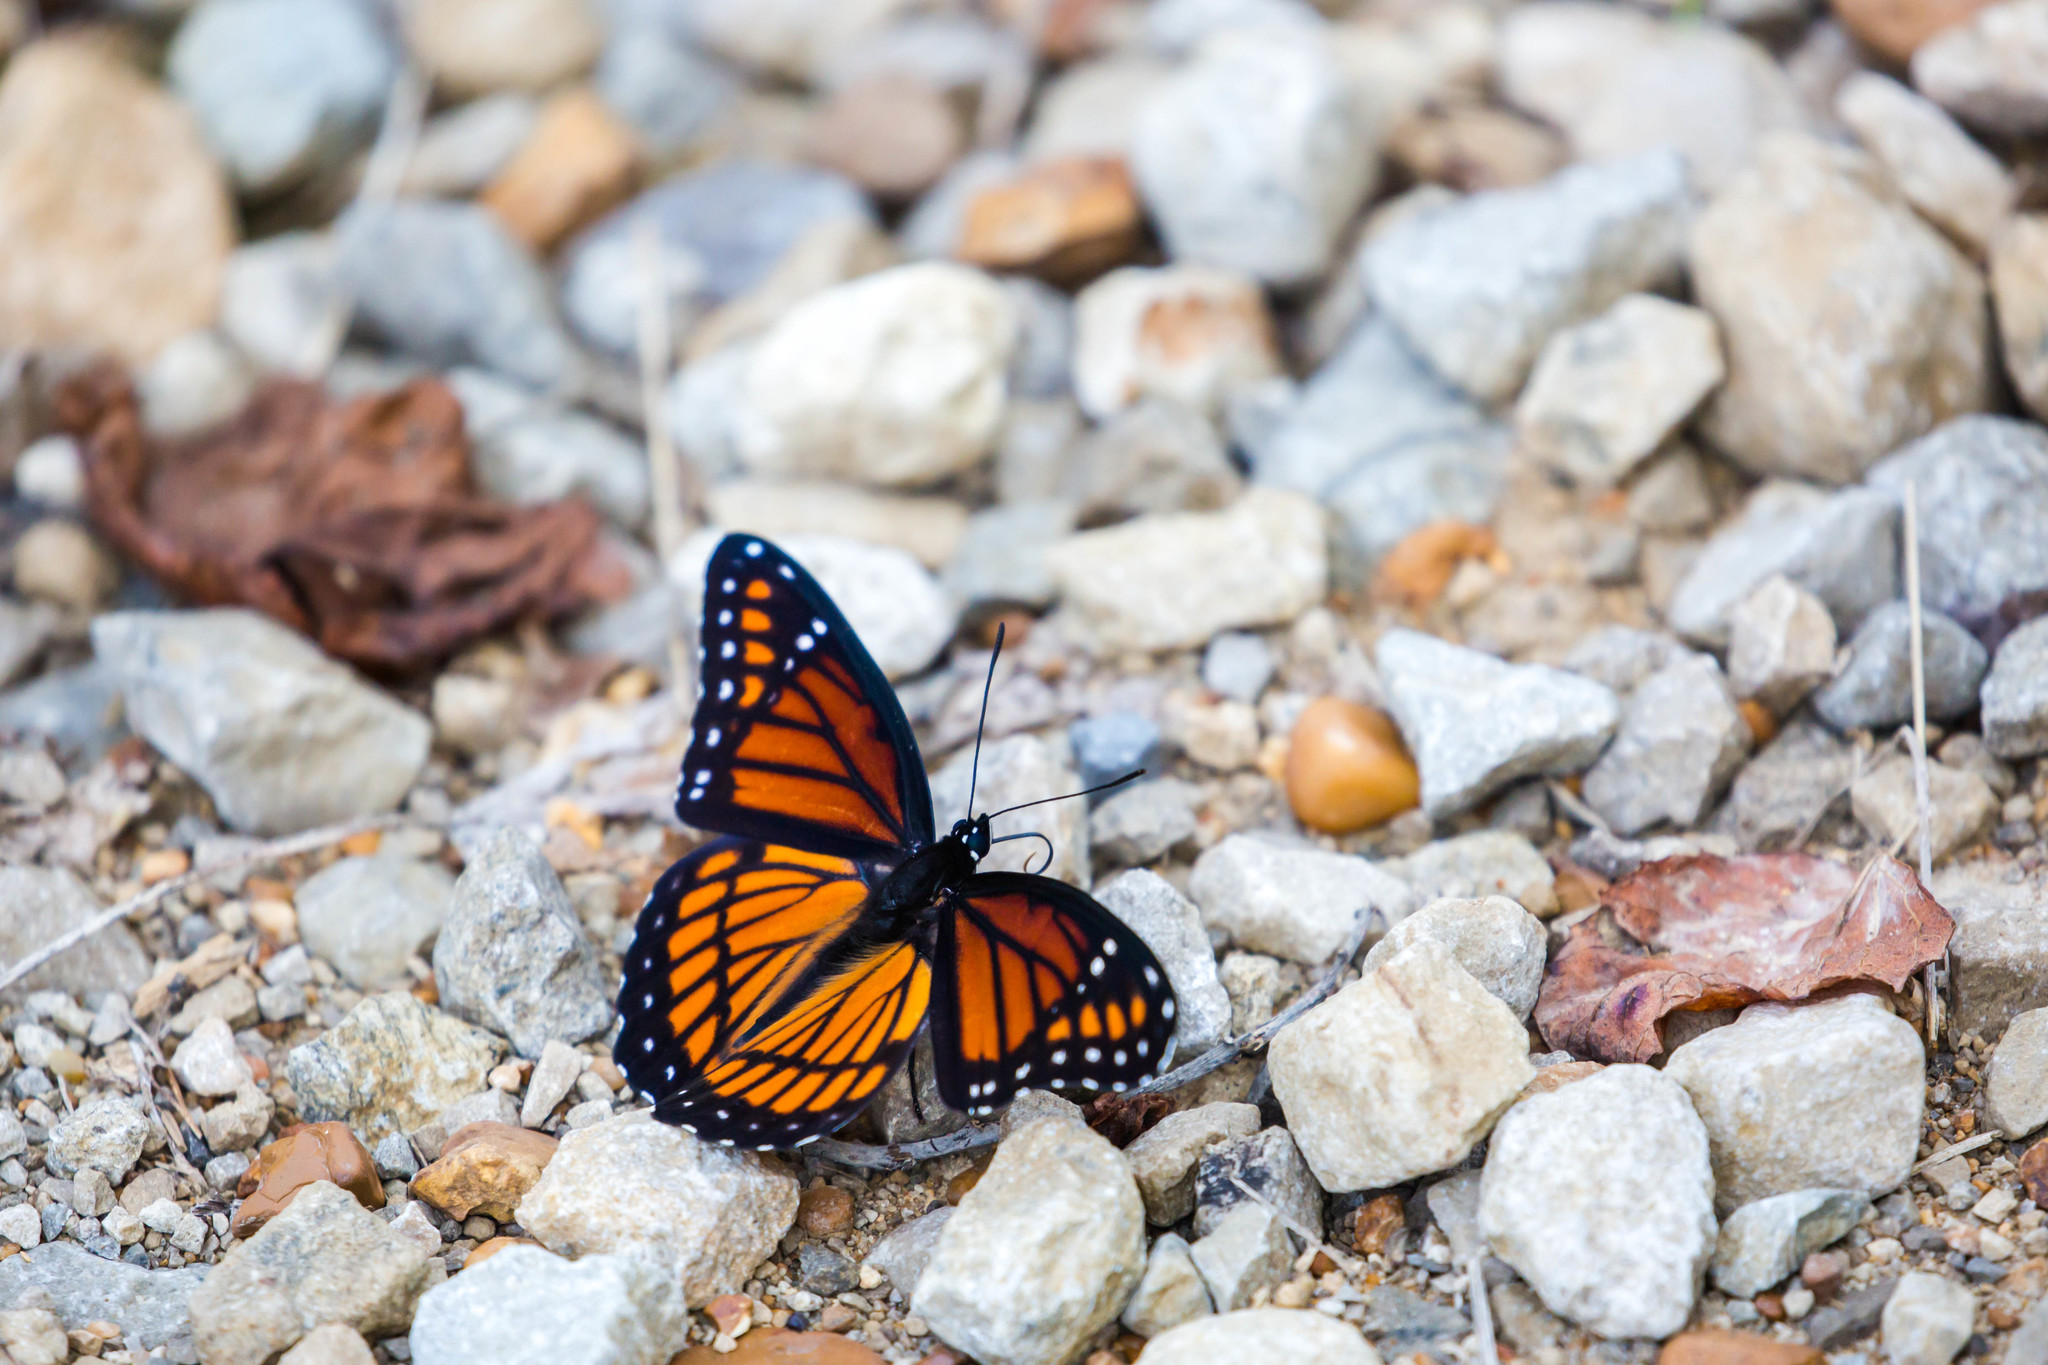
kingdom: Animalia
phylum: Arthropoda
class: Insecta
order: Lepidoptera
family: Nymphalidae
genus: Limenitis
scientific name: Limenitis archippus
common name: Viceroy
